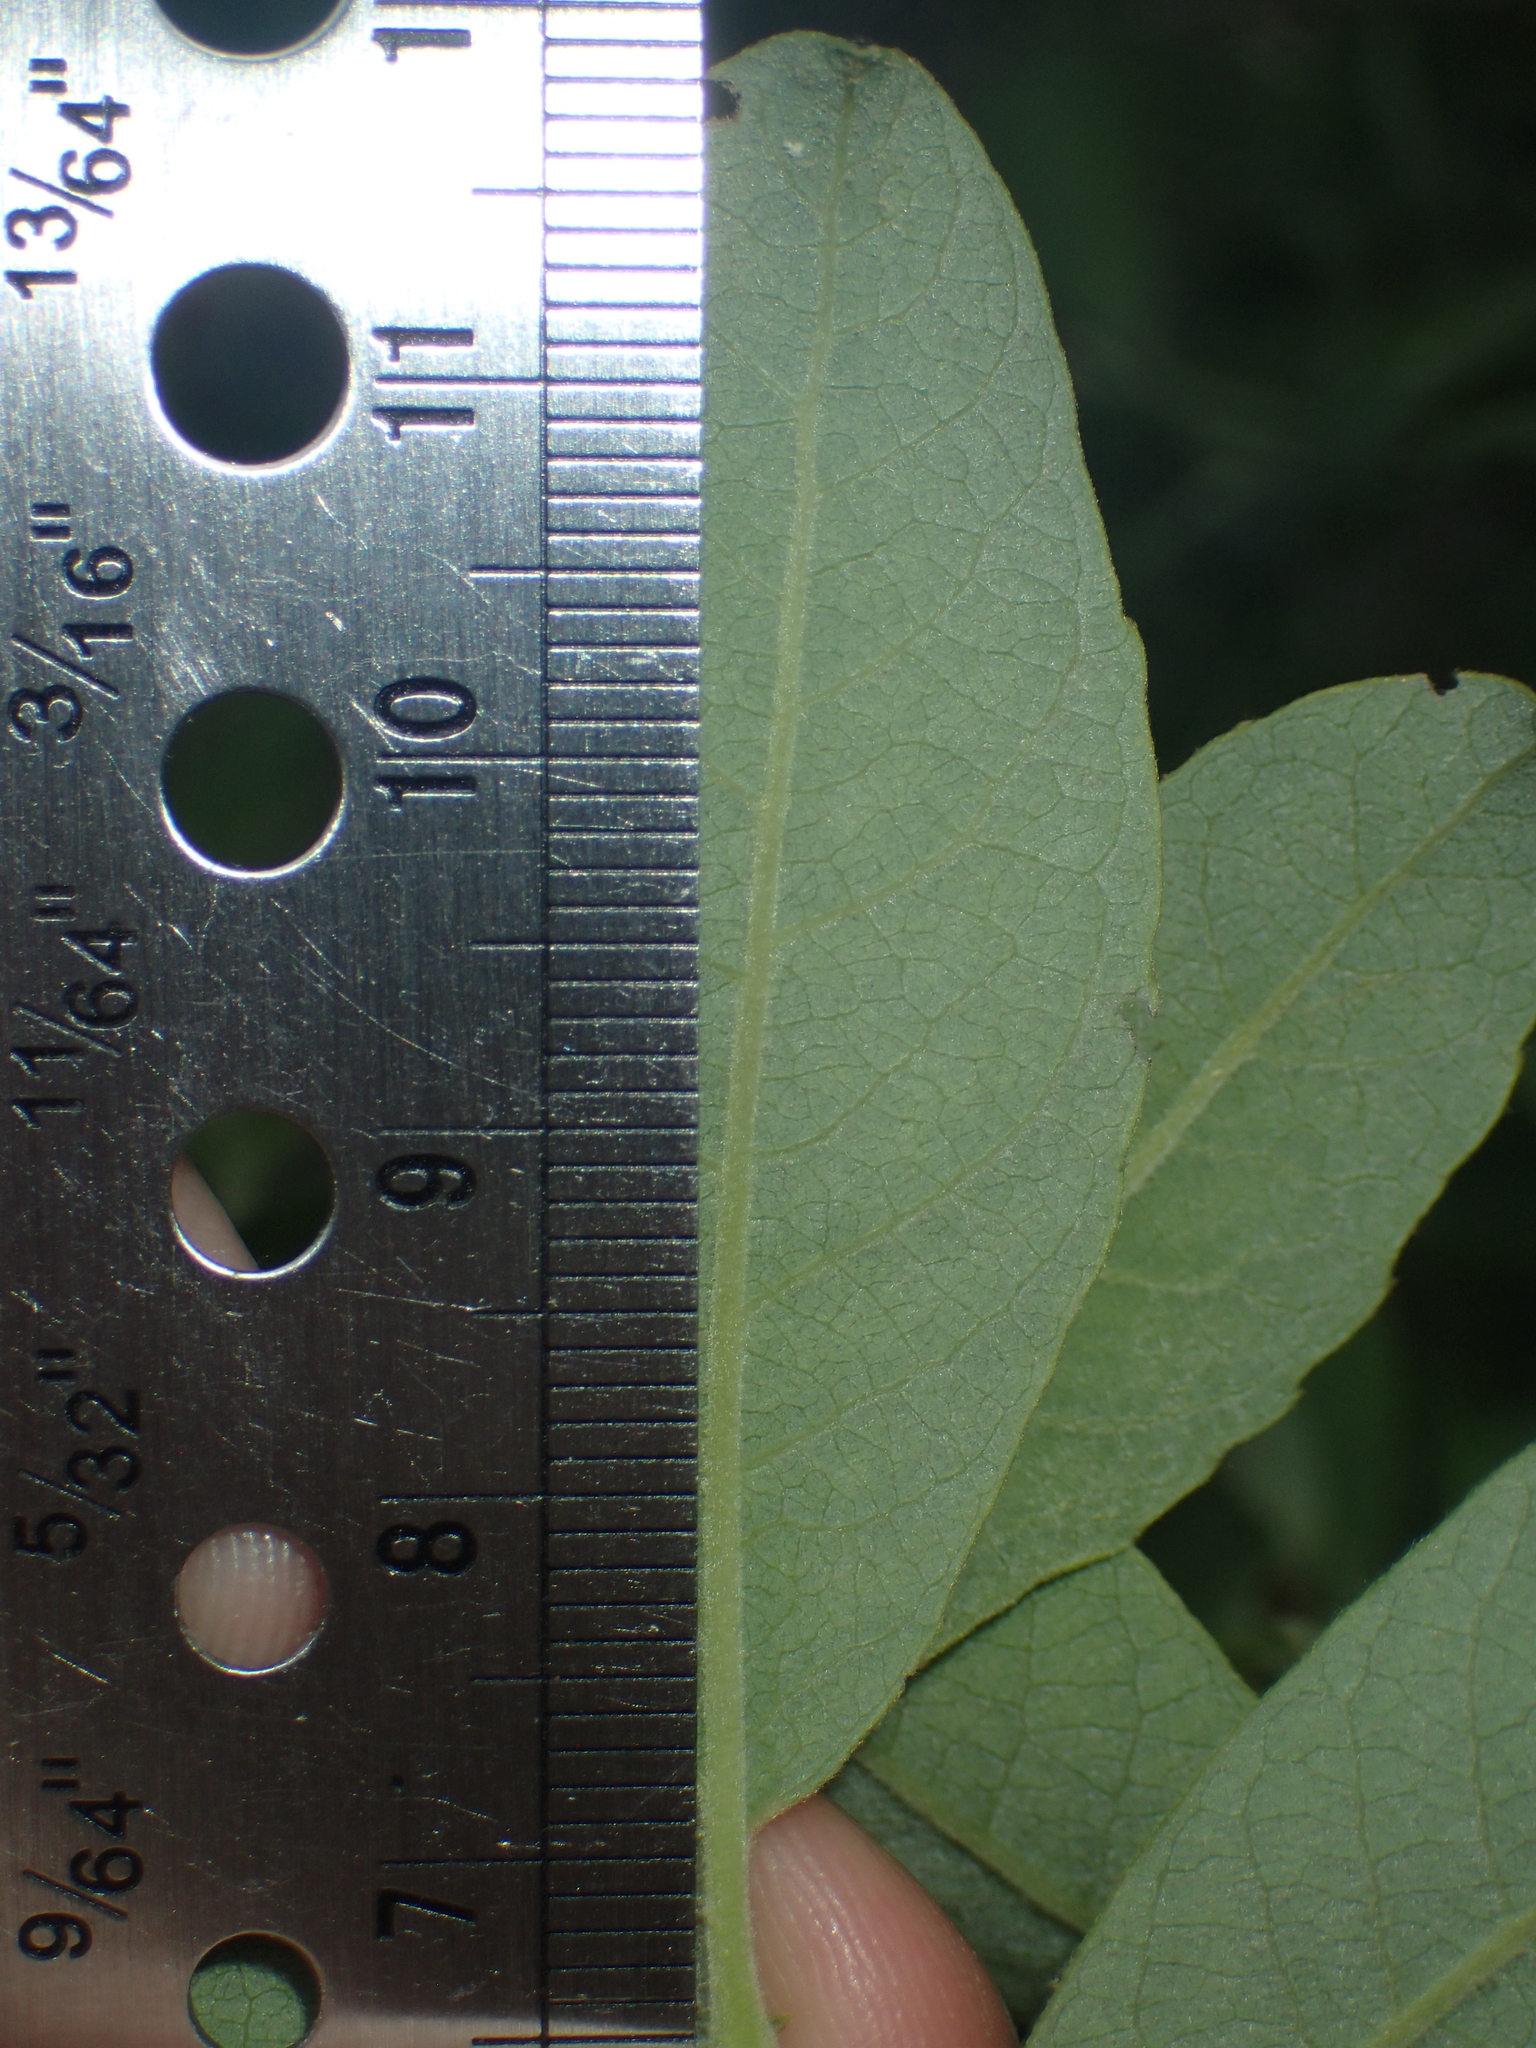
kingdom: Plantae
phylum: Tracheophyta
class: Magnoliopsida
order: Malpighiales
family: Salicaceae
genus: Salix
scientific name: Salix atrocinerea
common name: Rusty willow
